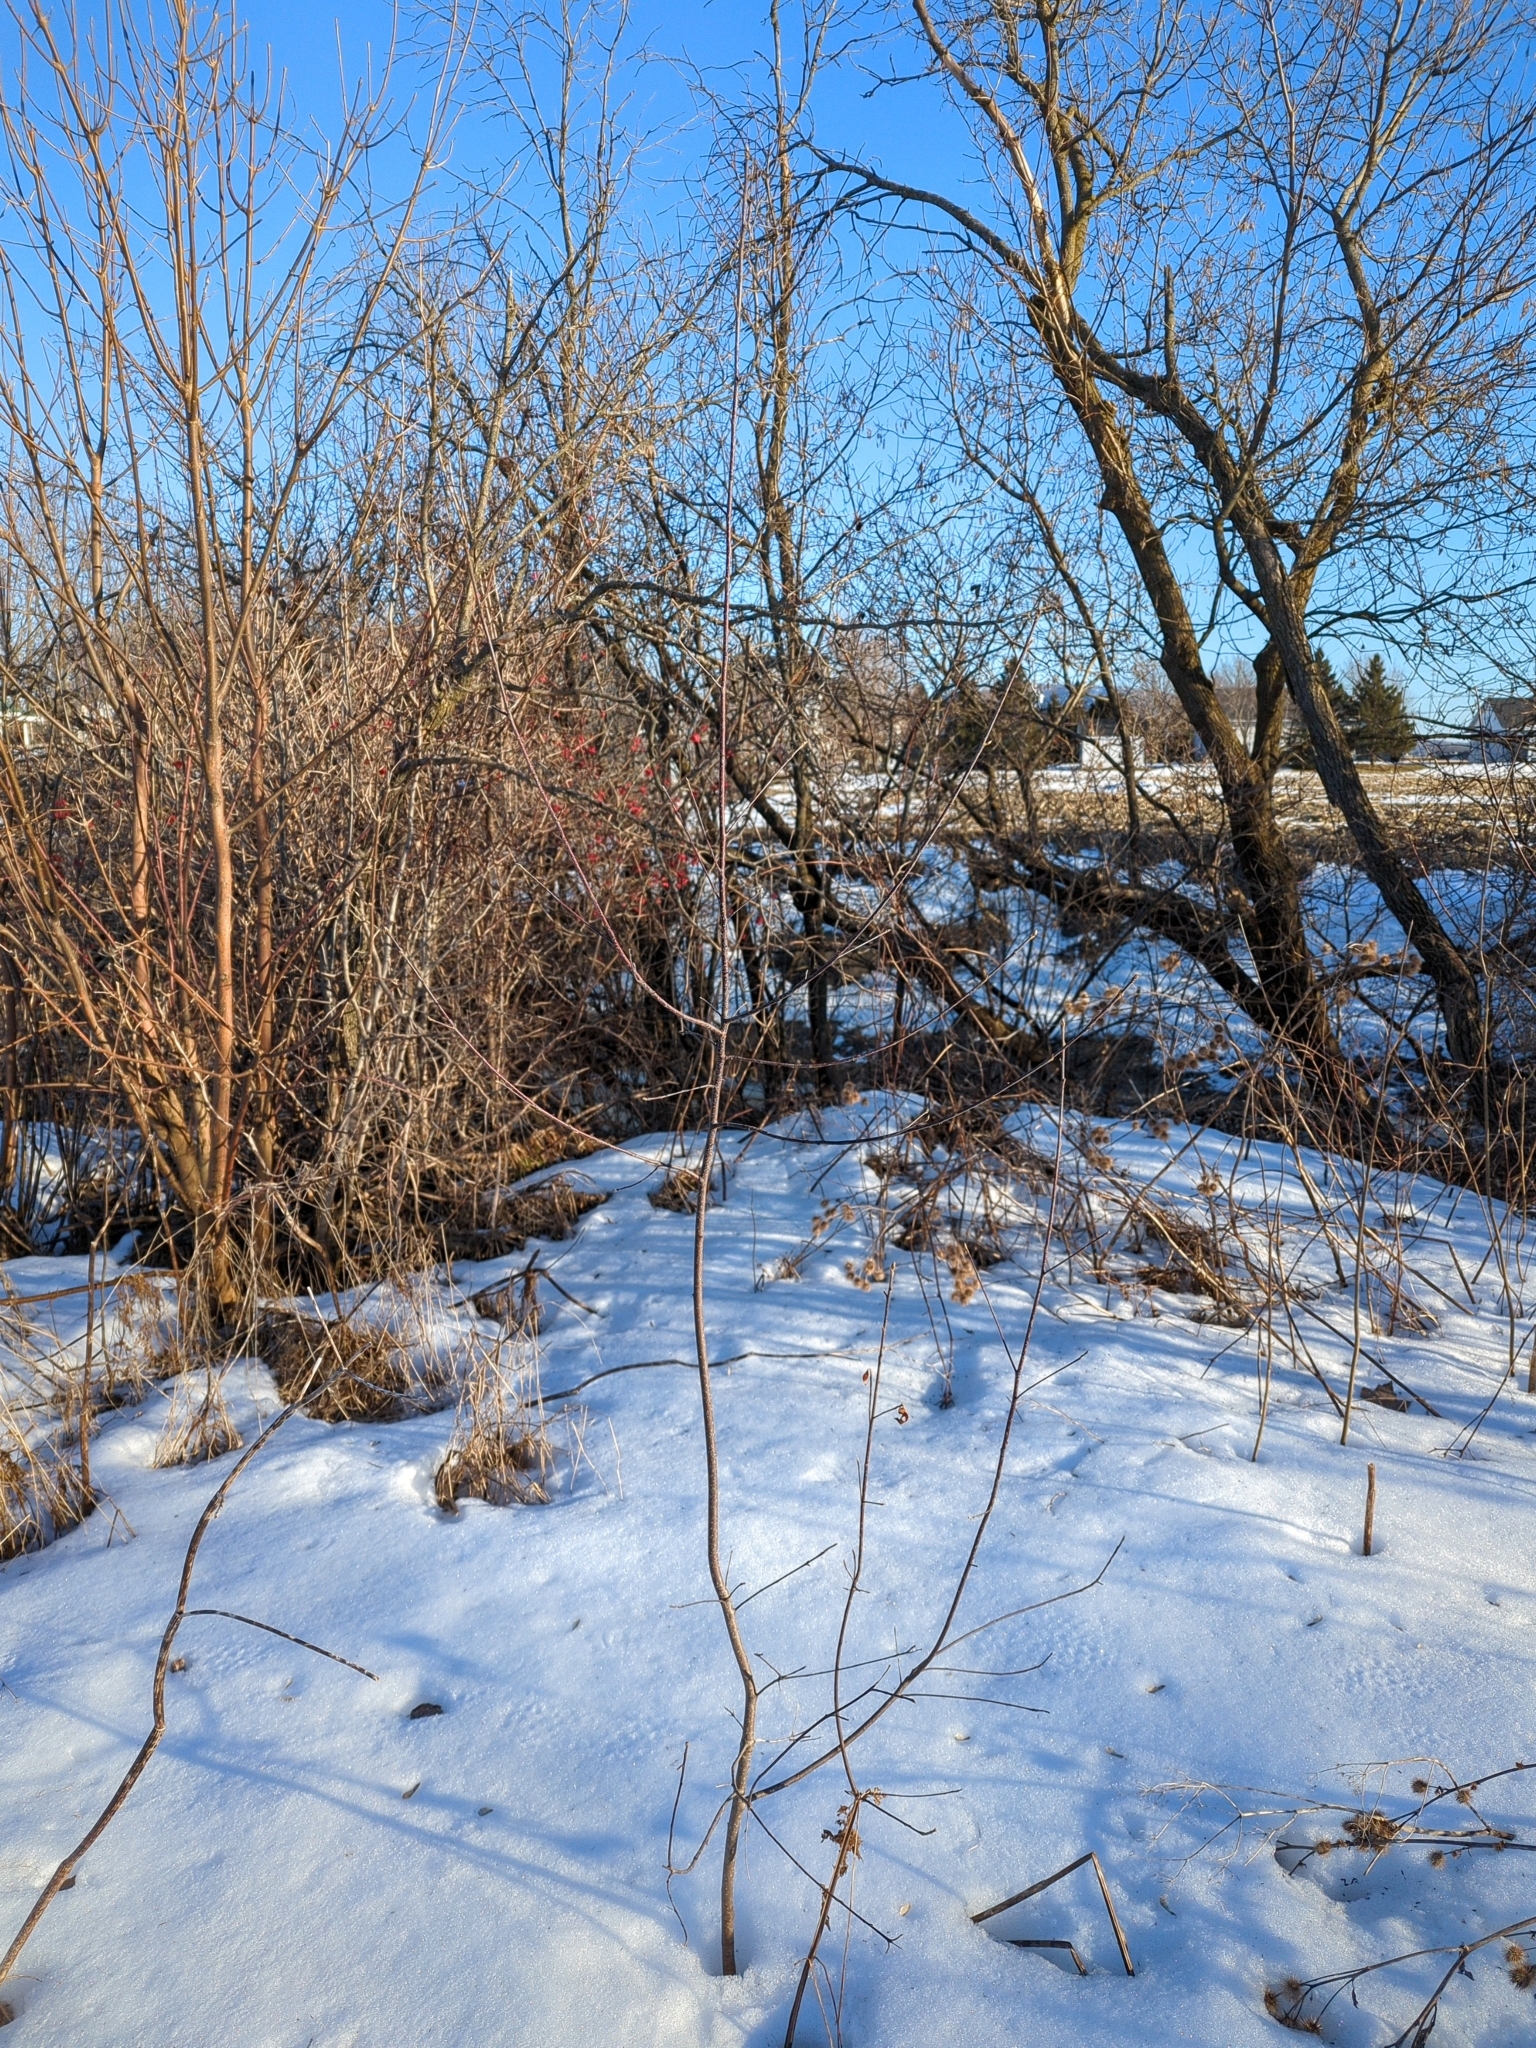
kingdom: Plantae
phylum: Tracheophyta
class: Magnoliopsida
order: Rosales
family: Rhamnaceae
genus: Frangula
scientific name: Frangula alnus
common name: Alder buckthorn
